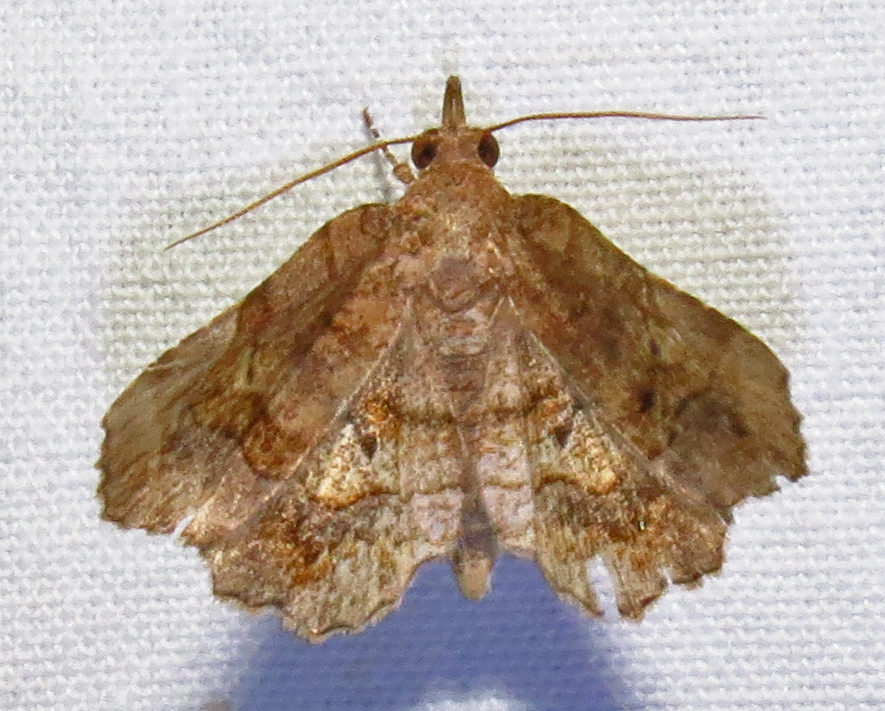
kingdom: Animalia
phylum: Arthropoda
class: Insecta
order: Lepidoptera
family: Erebidae
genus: Pangrapta
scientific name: Pangrapta decoralis
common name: Decorated owlet
